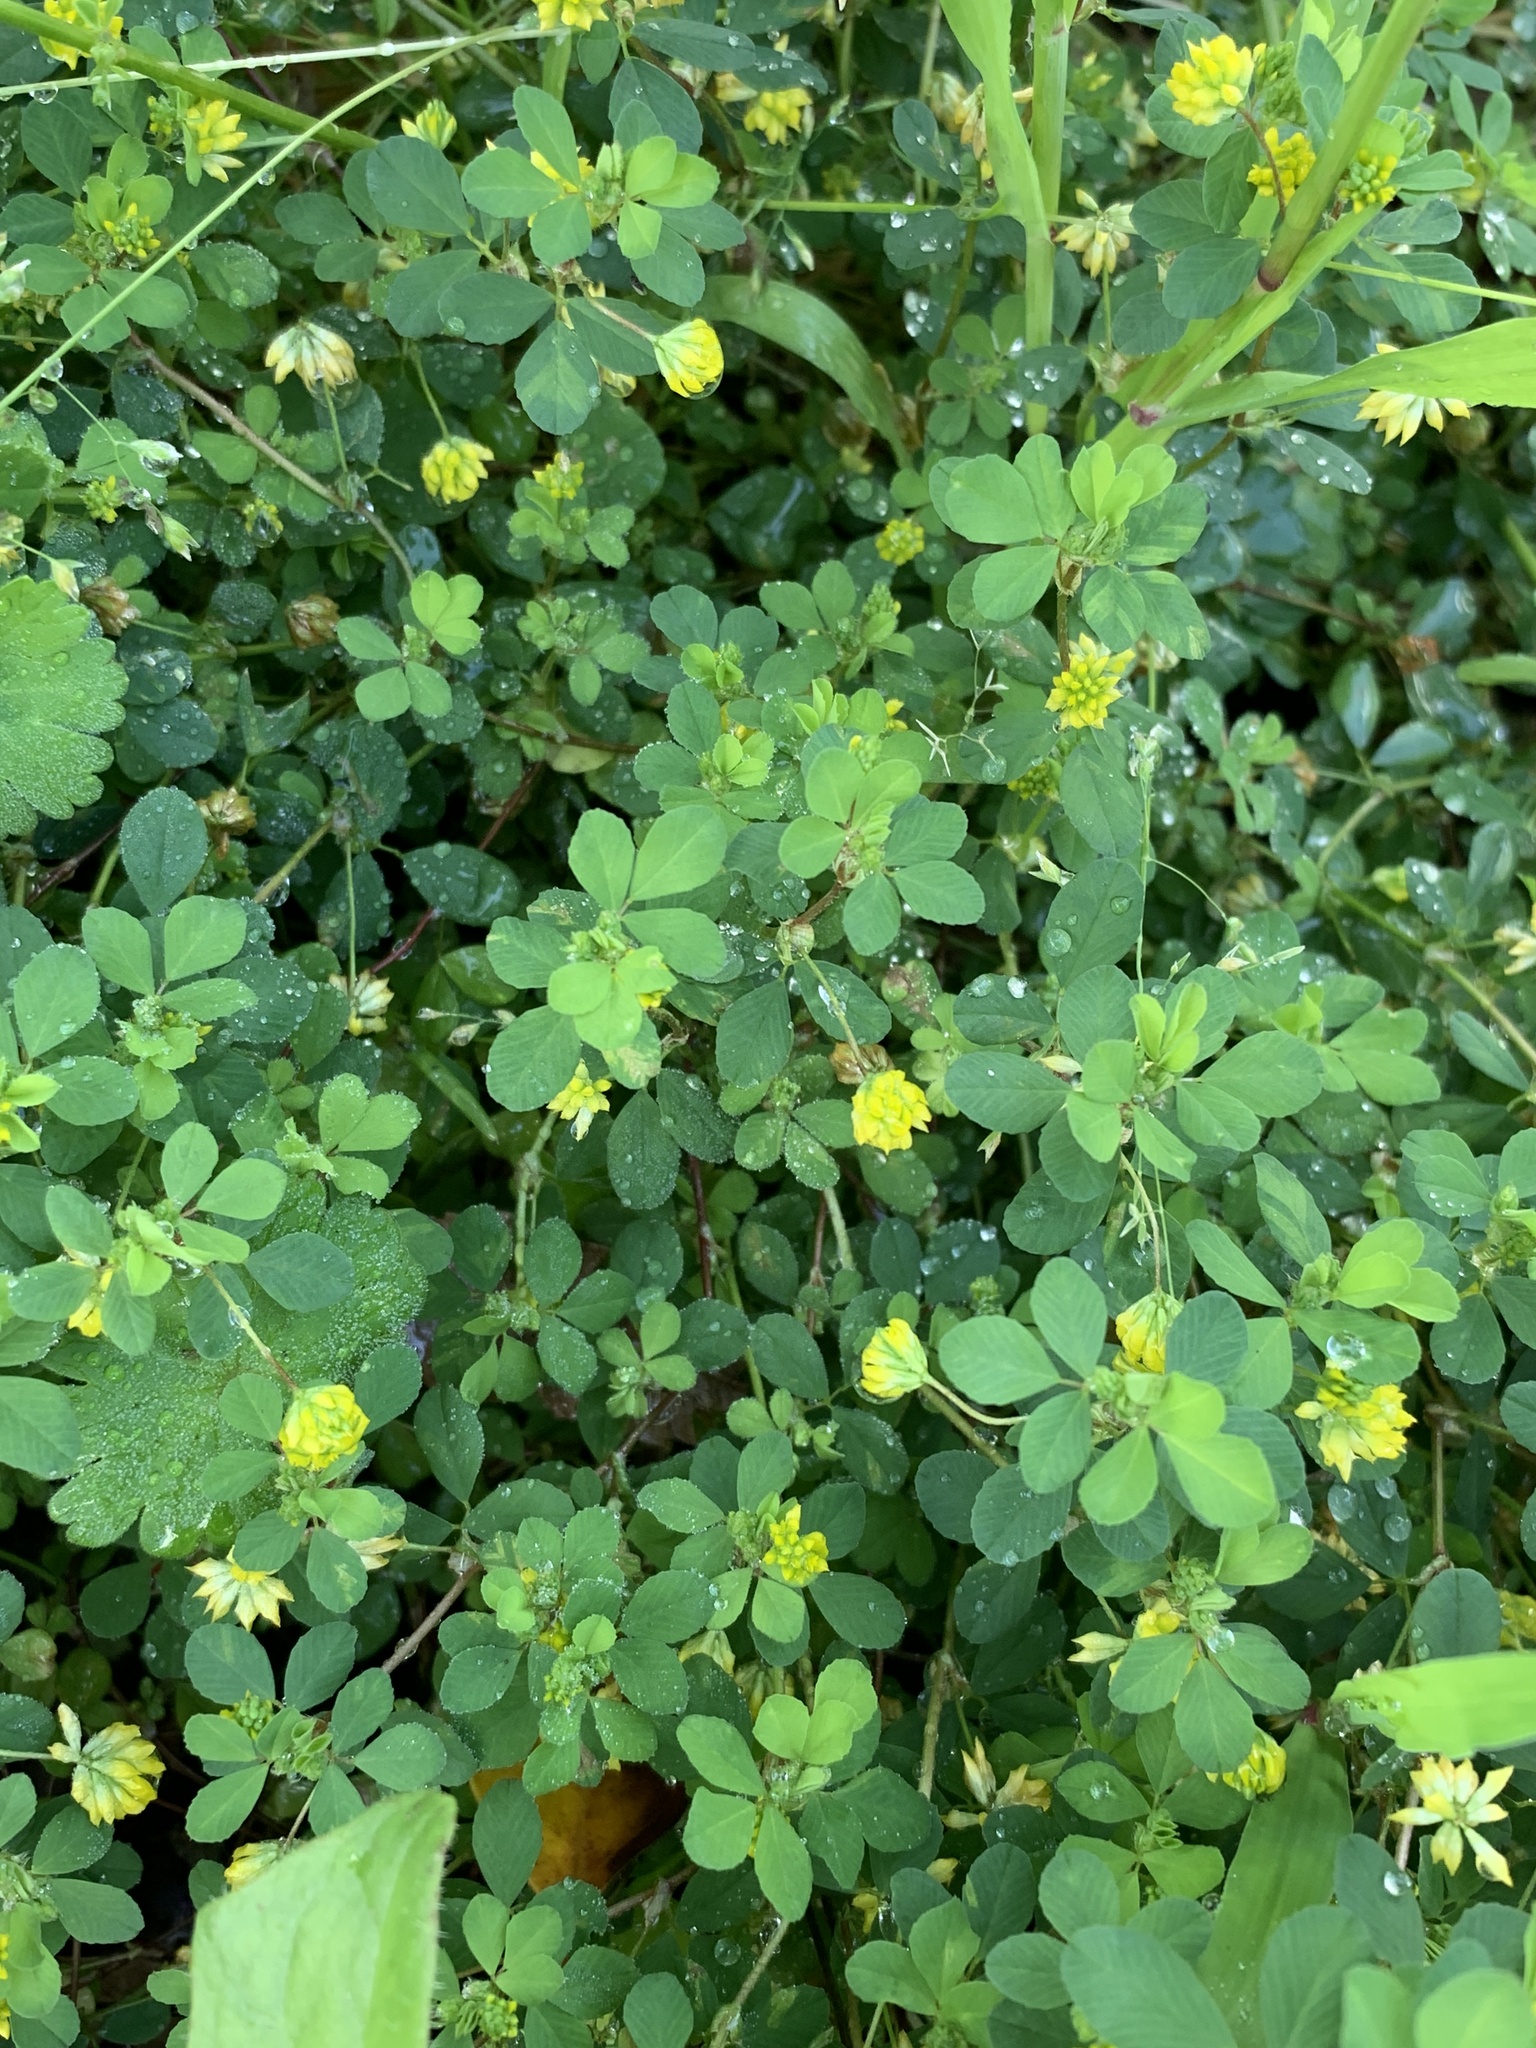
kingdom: Plantae
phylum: Tracheophyta
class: Magnoliopsida
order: Fabales
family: Fabaceae
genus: Trifolium
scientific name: Trifolium dubium
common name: Suckling clover
